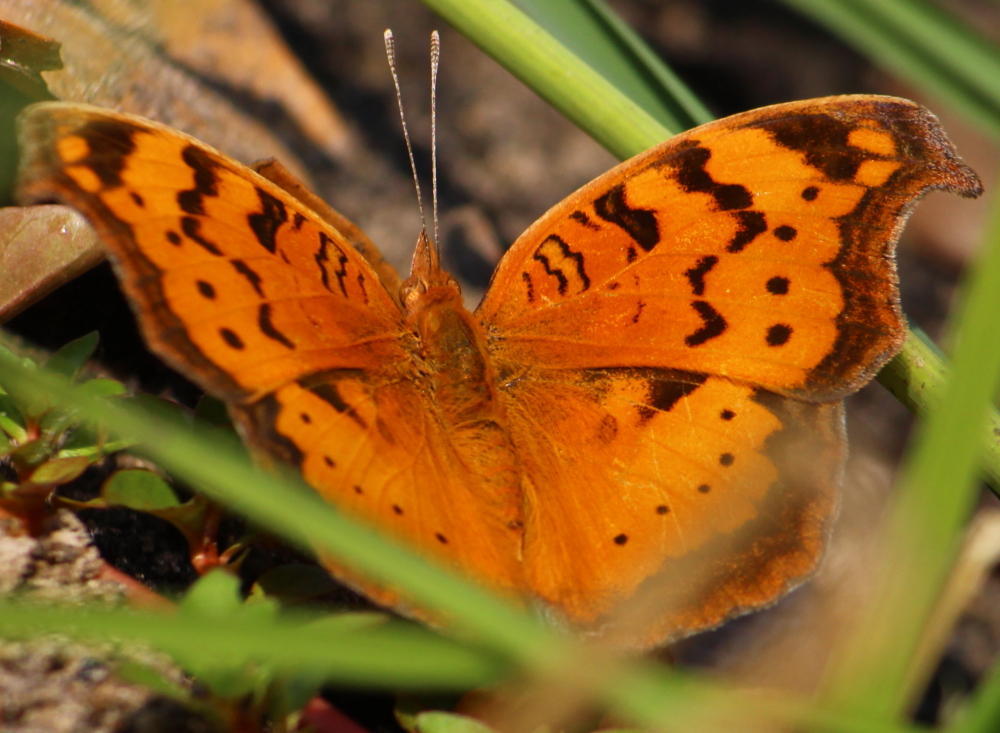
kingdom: Animalia
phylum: Arthropoda
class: Insecta
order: Lepidoptera
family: Nymphalidae
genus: Junonia
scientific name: Junonia antilope
